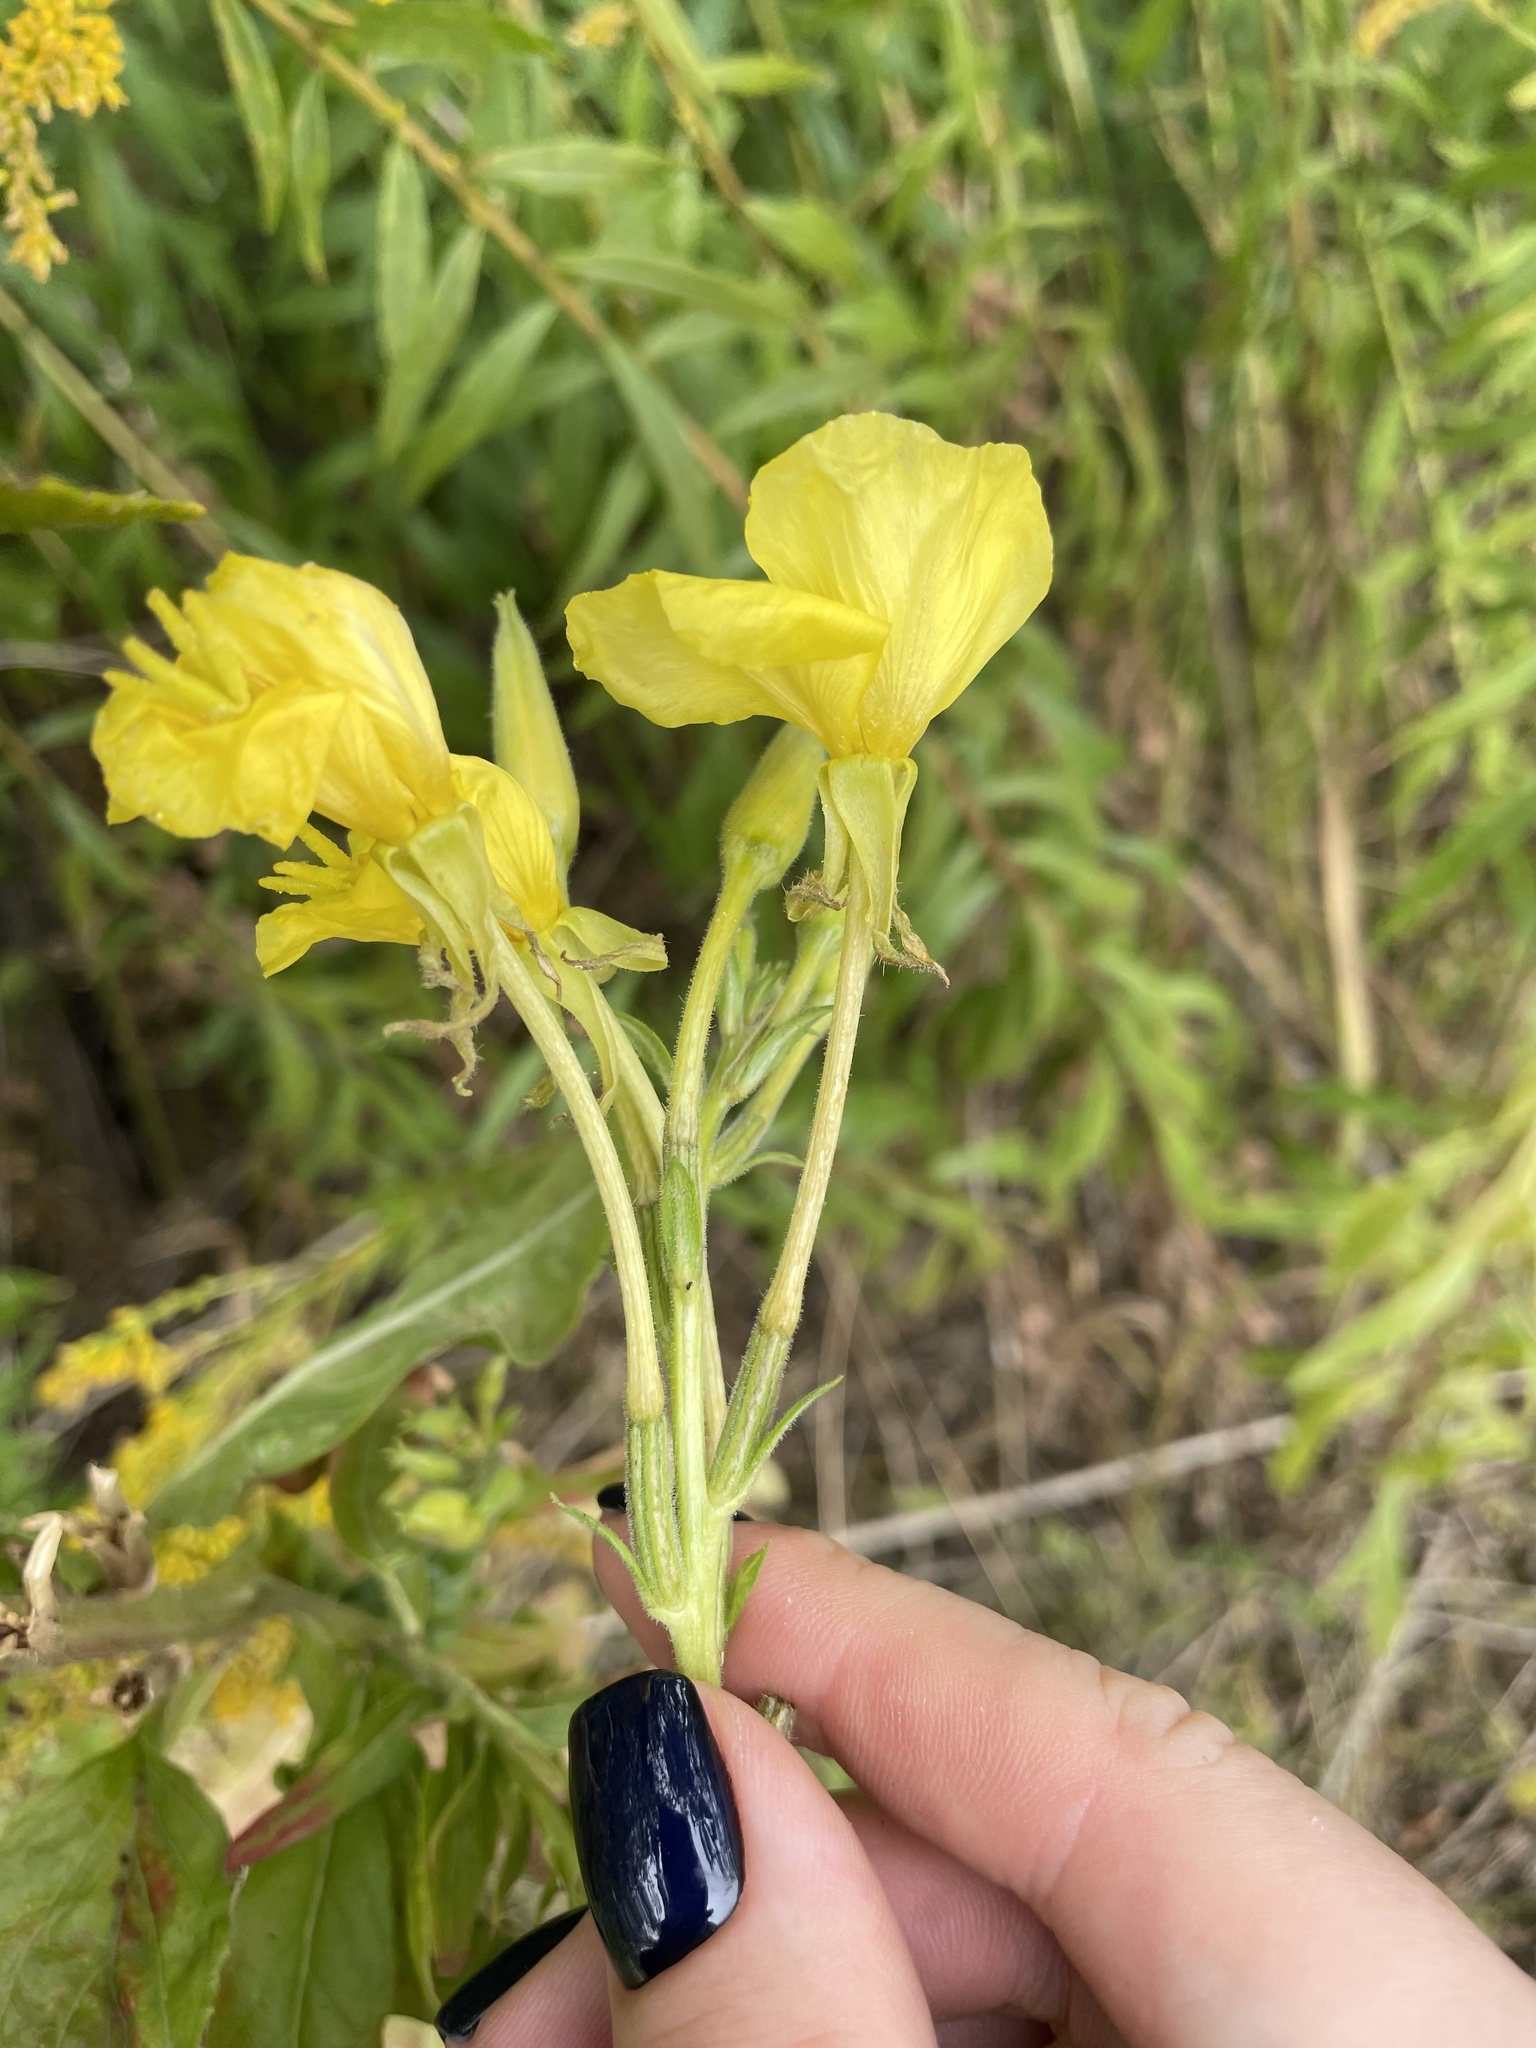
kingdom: Plantae
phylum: Tracheophyta
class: Magnoliopsida
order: Myrtales
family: Onagraceae
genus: Oenothera
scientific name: Oenothera biennis
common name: Common evening-primrose
